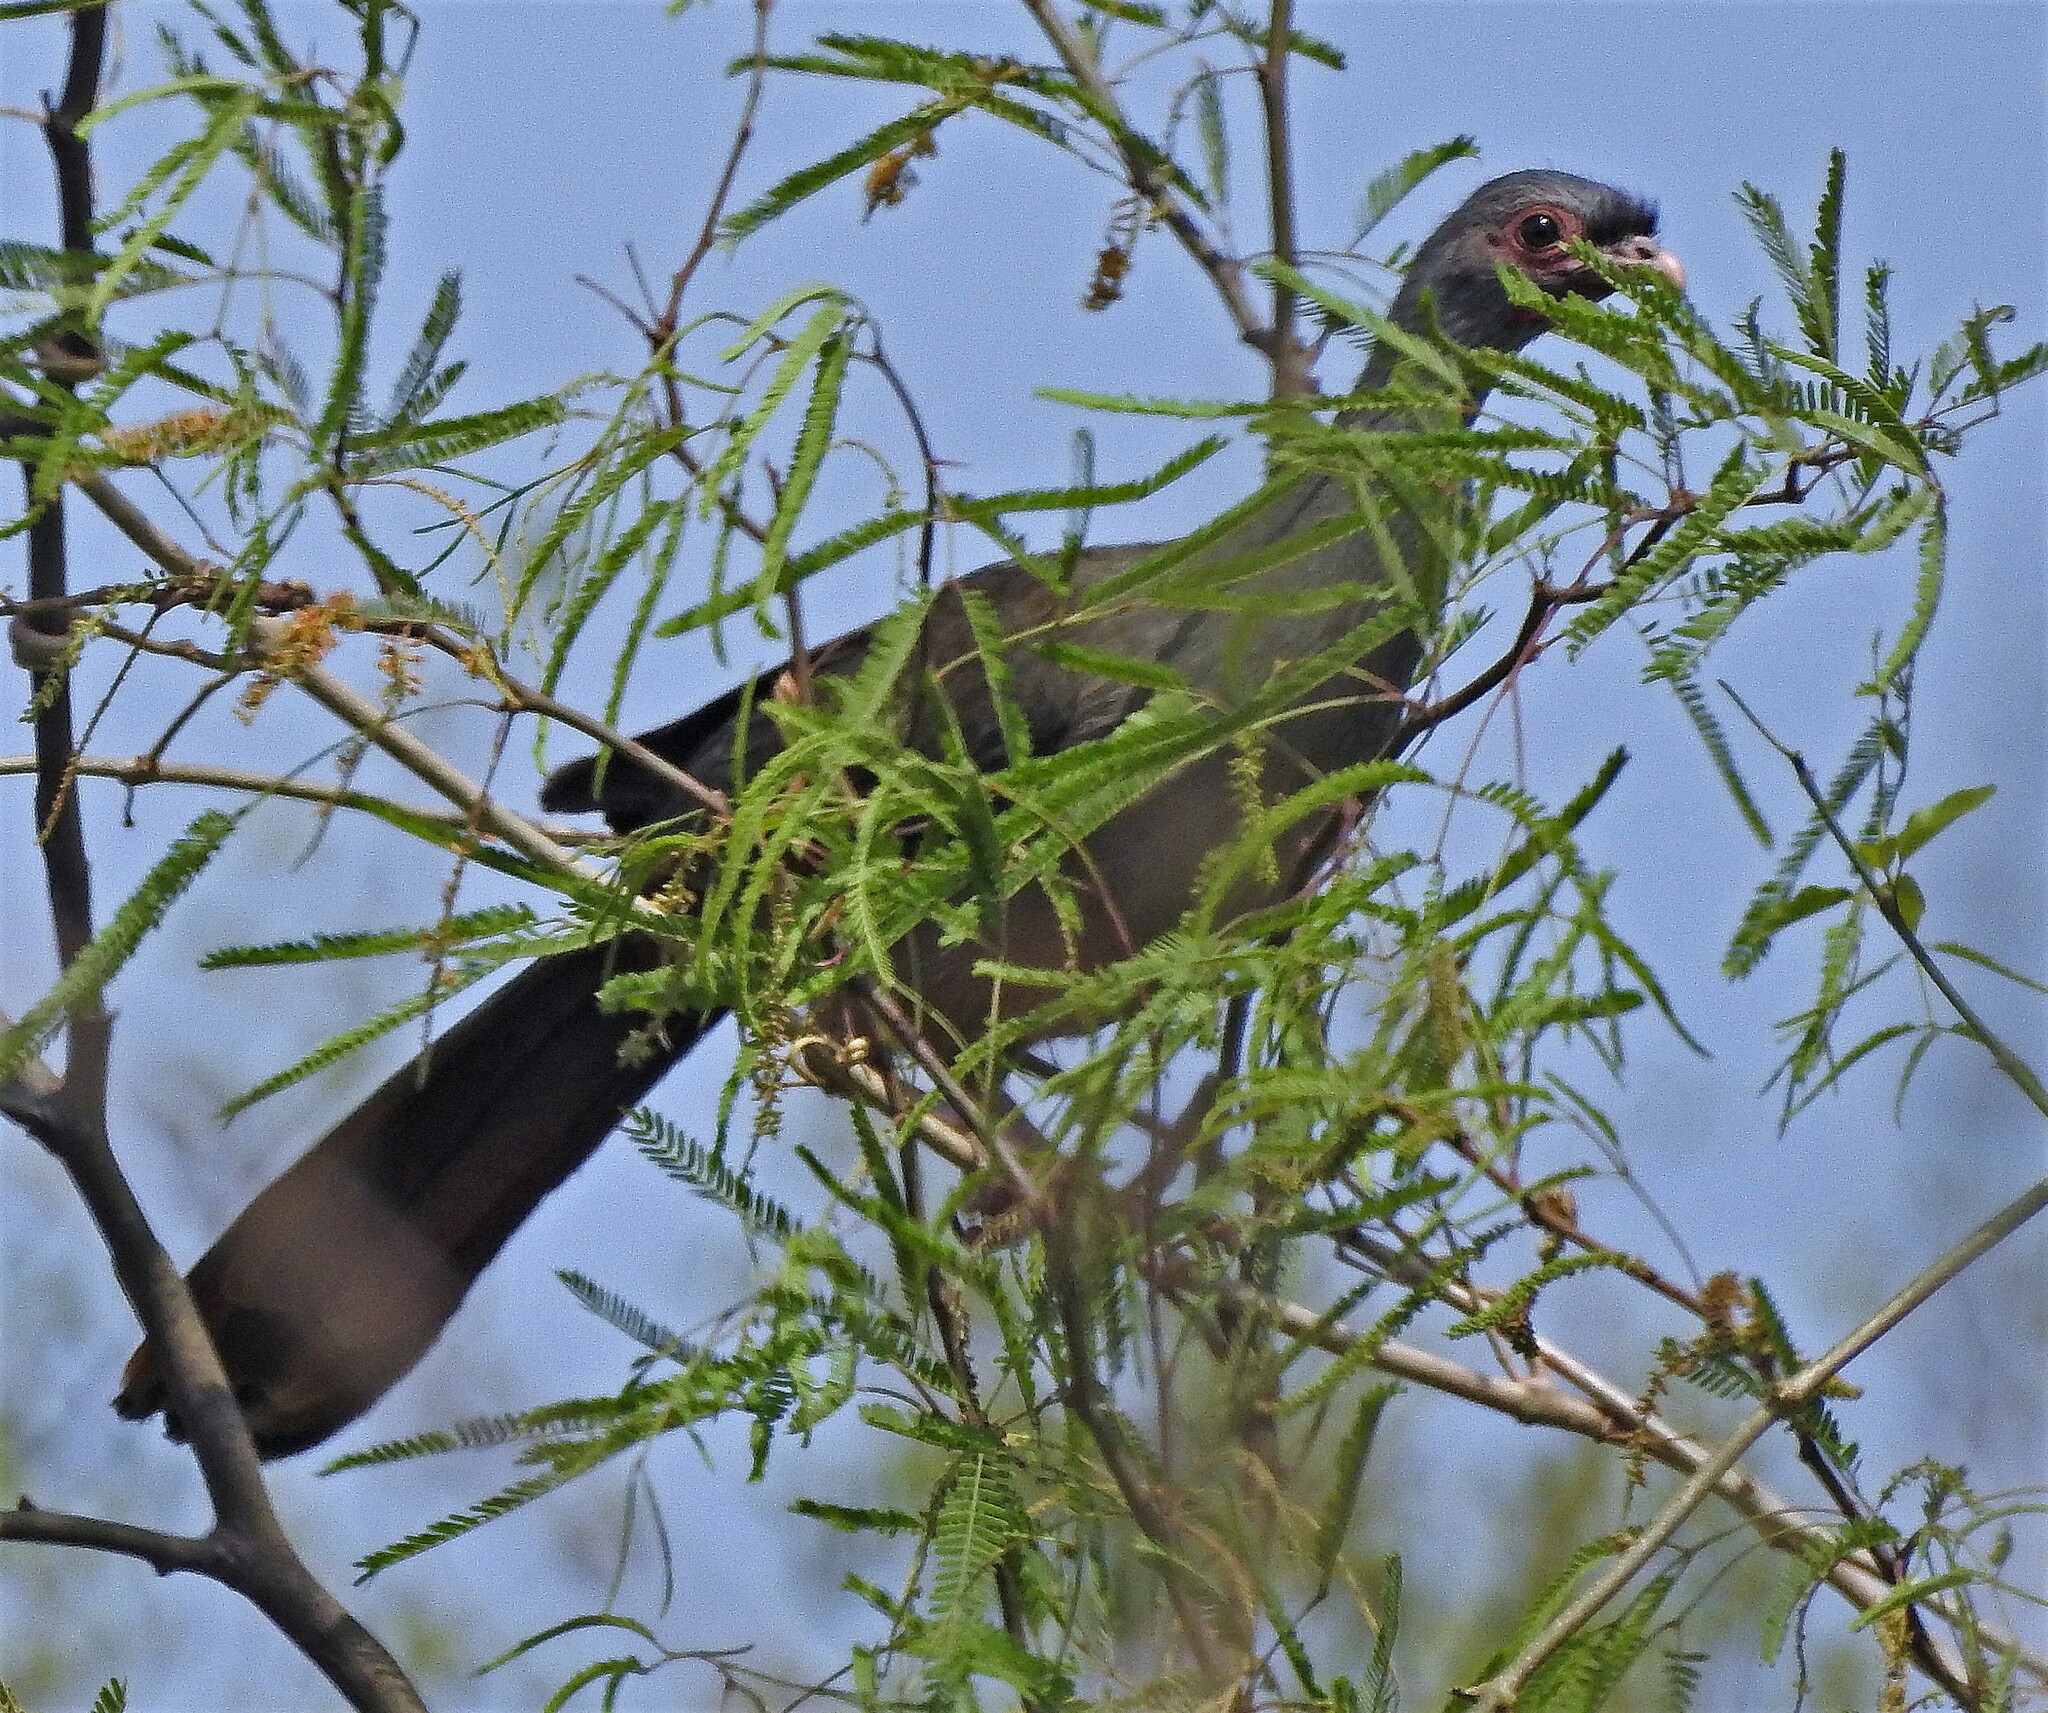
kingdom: Animalia
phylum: Chordata
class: Aves
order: Galliformes
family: Cracidae
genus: Ortalis
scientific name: Ortalis canicollis
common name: Chaco chachalaca
